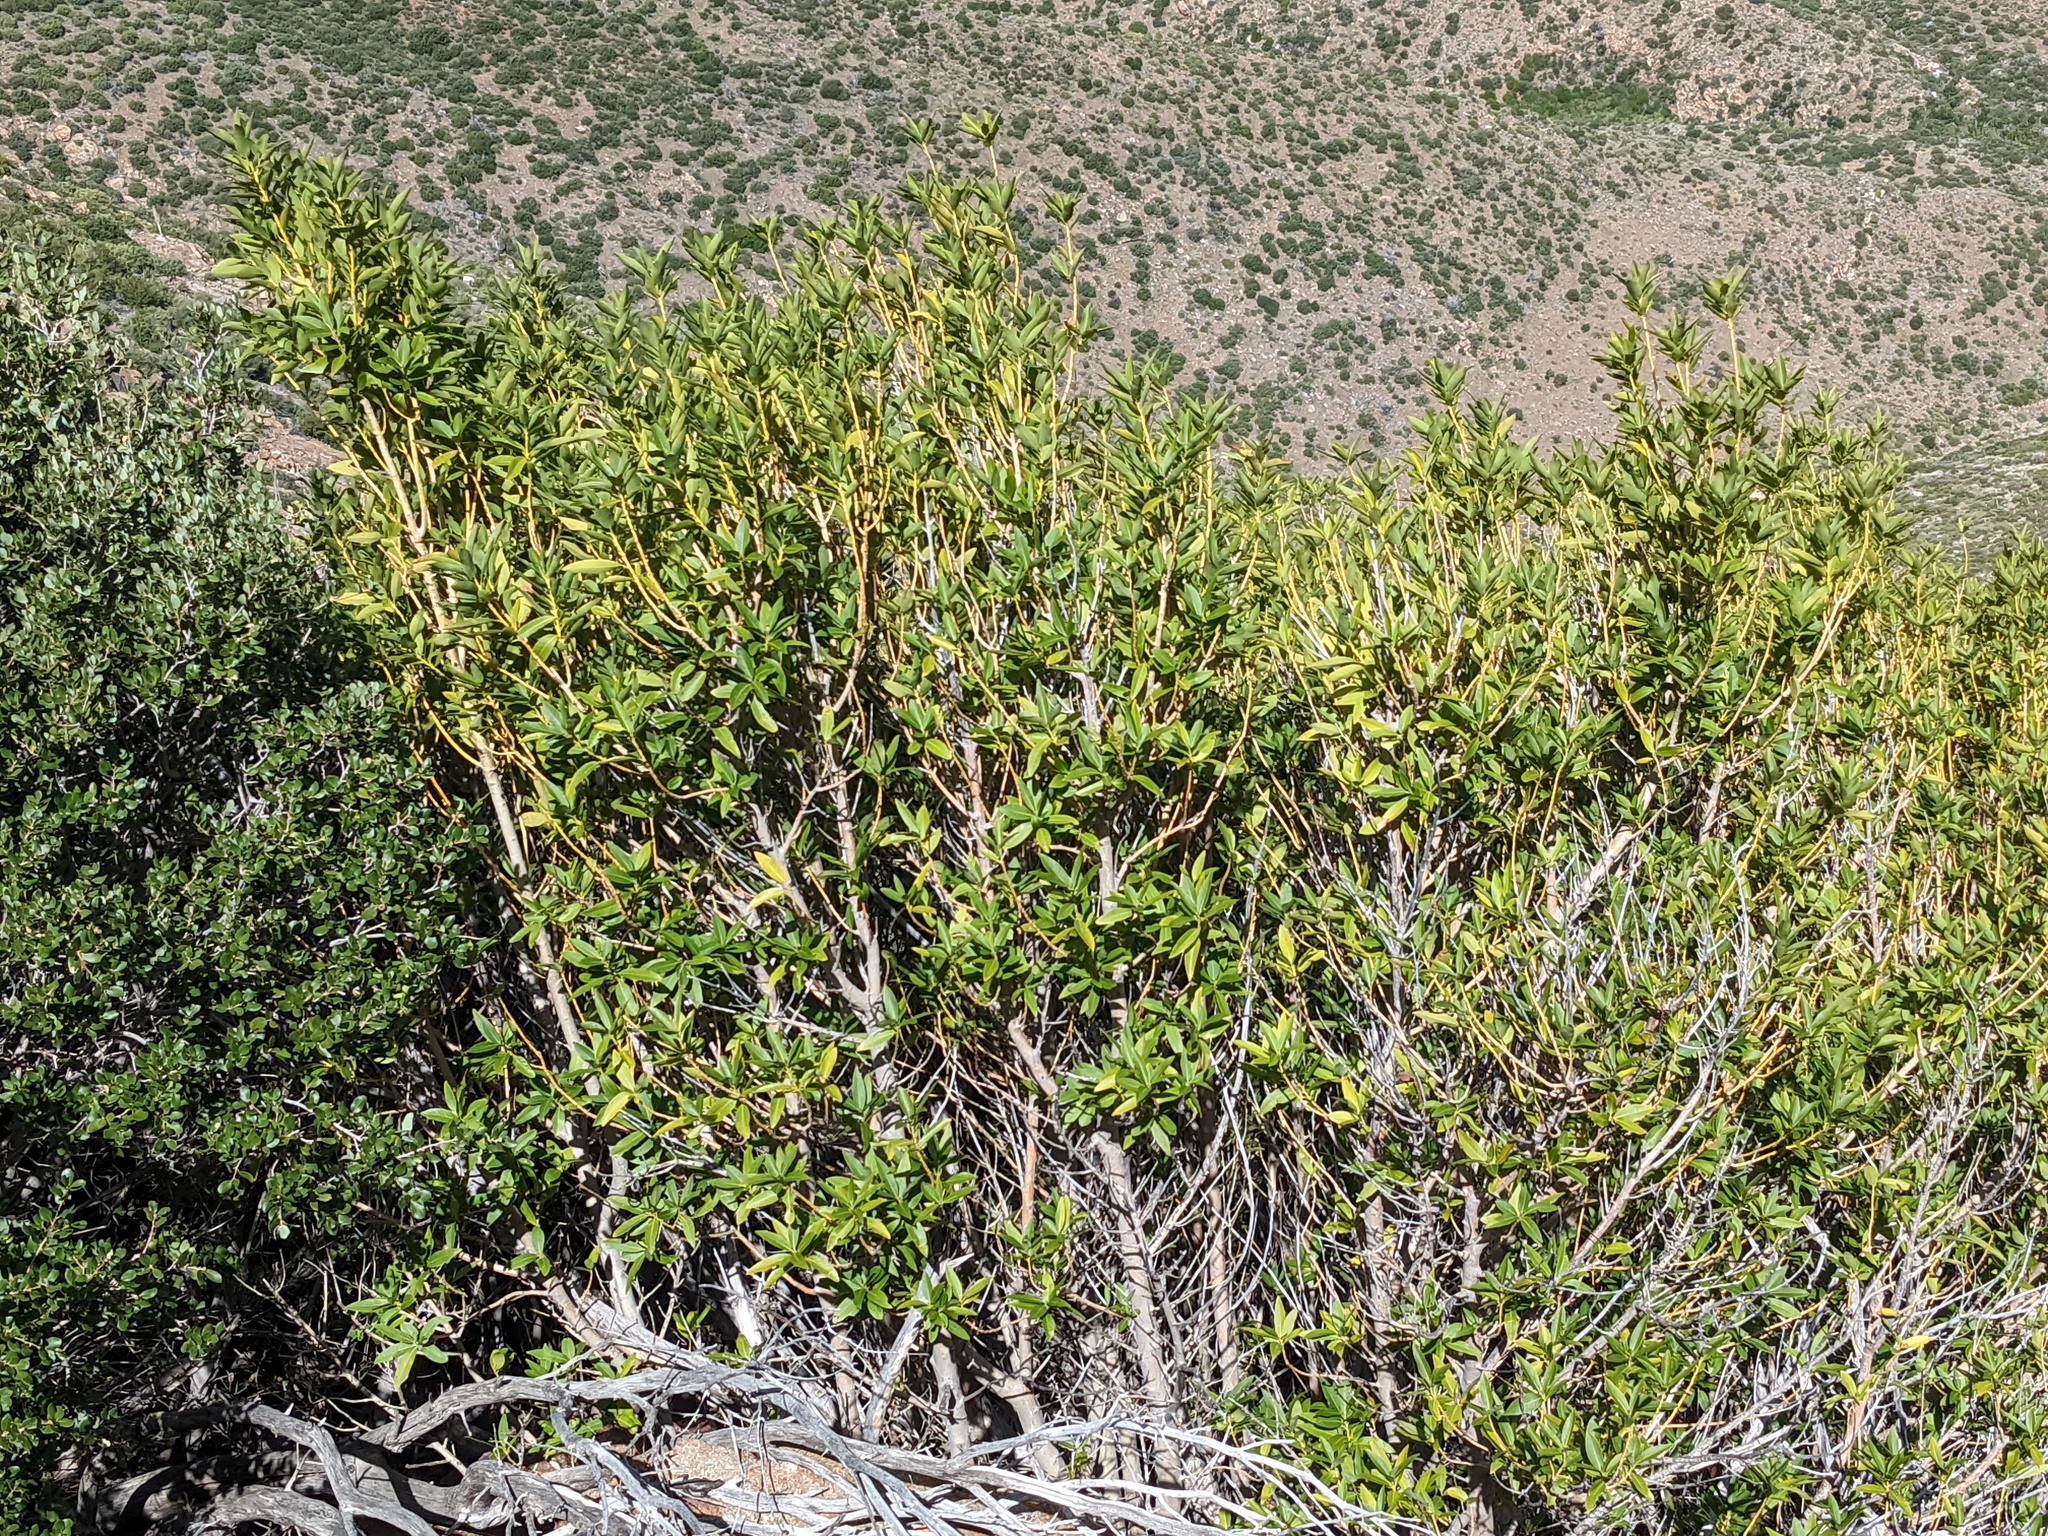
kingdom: Plantae
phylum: Tracheophyta
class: Magnoliopsida
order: Laurales
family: Lauraceae
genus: Umbellularia
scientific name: Umbellularia californica
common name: California bay
